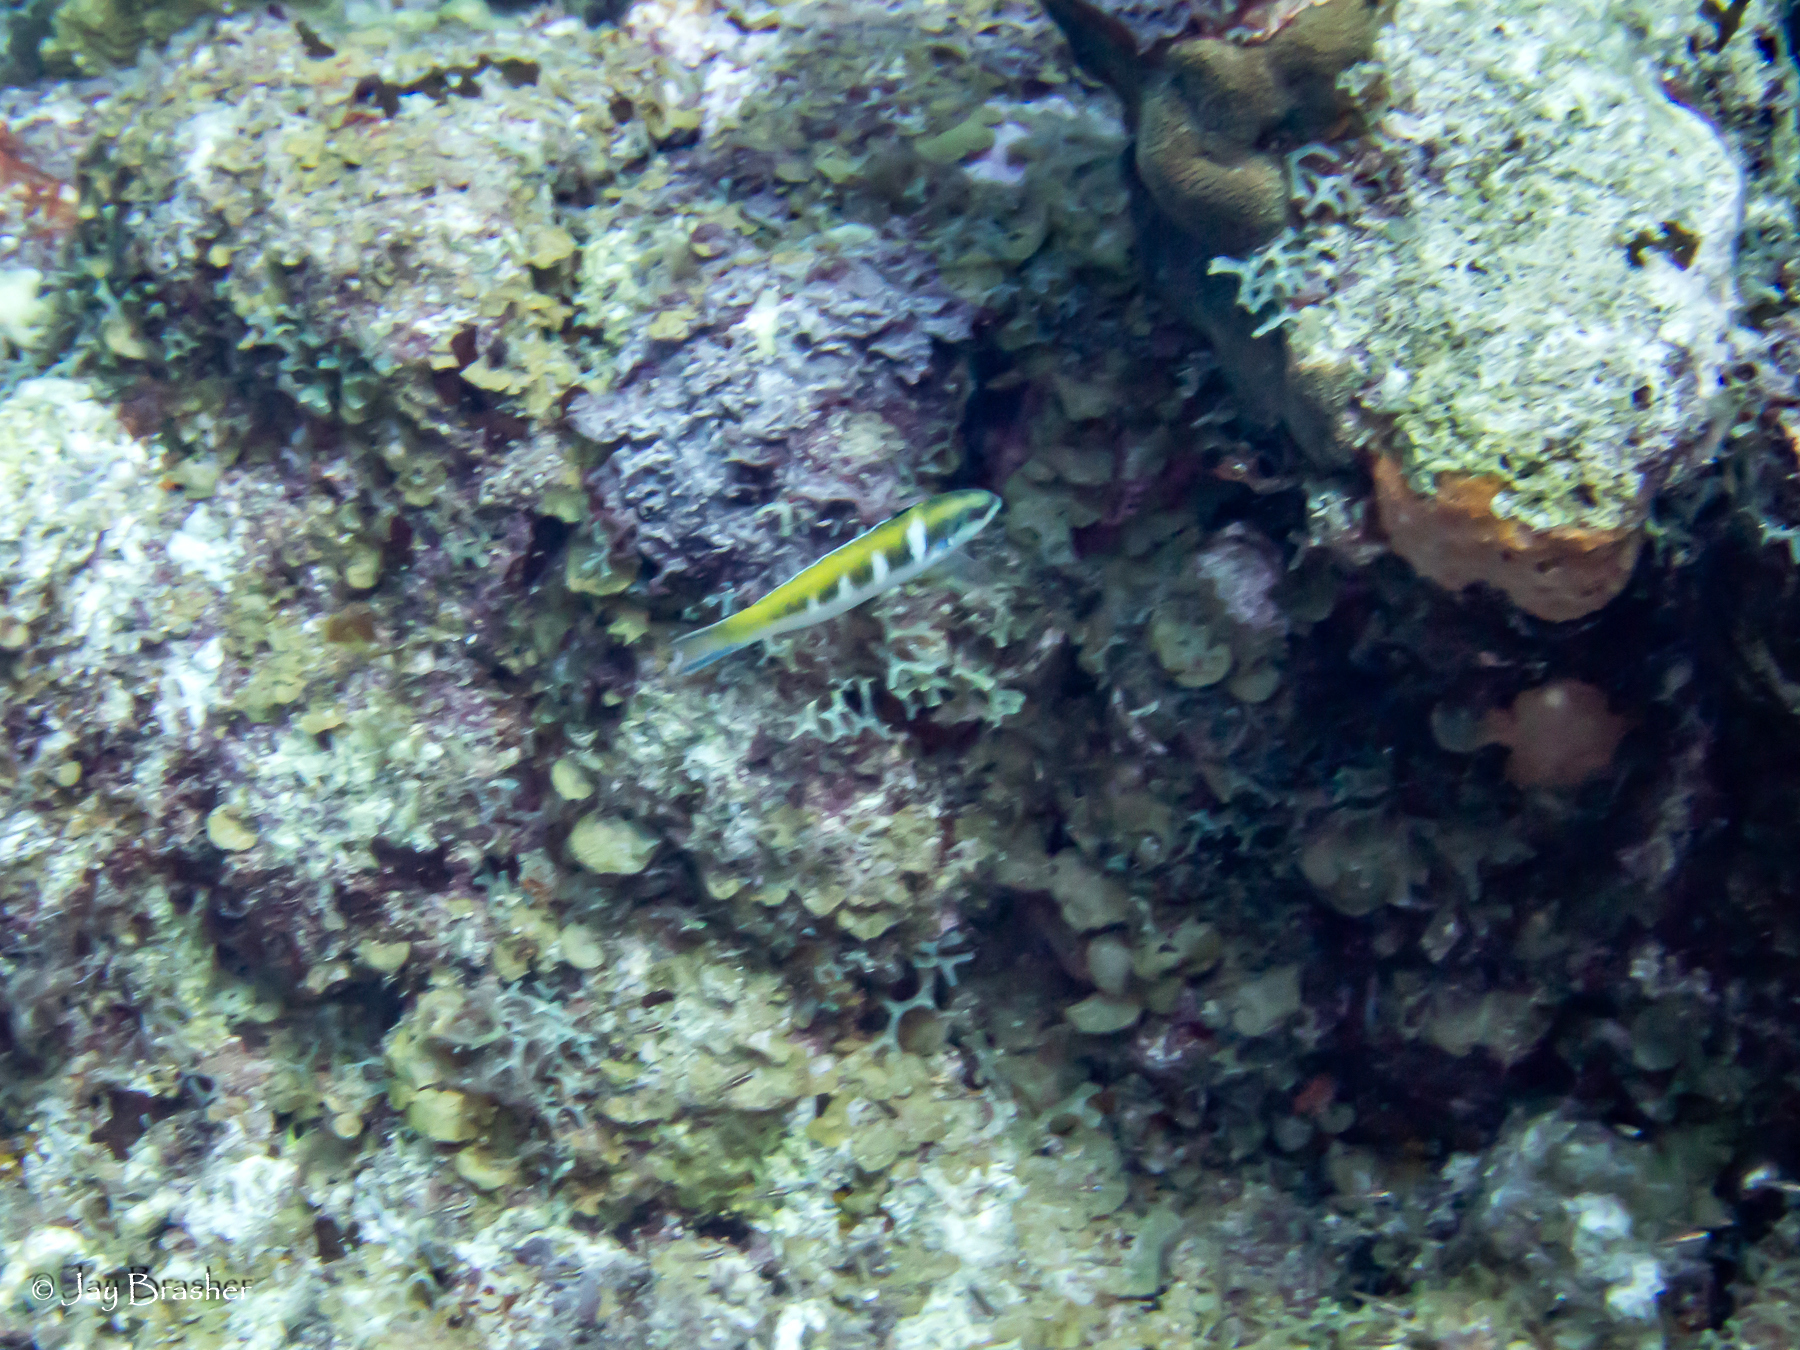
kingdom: Animalia
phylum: Chordata
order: Perciformes
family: Labridae
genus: Thalassoma
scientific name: Thalassoma bifasciatum
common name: Bluehead wrasse
